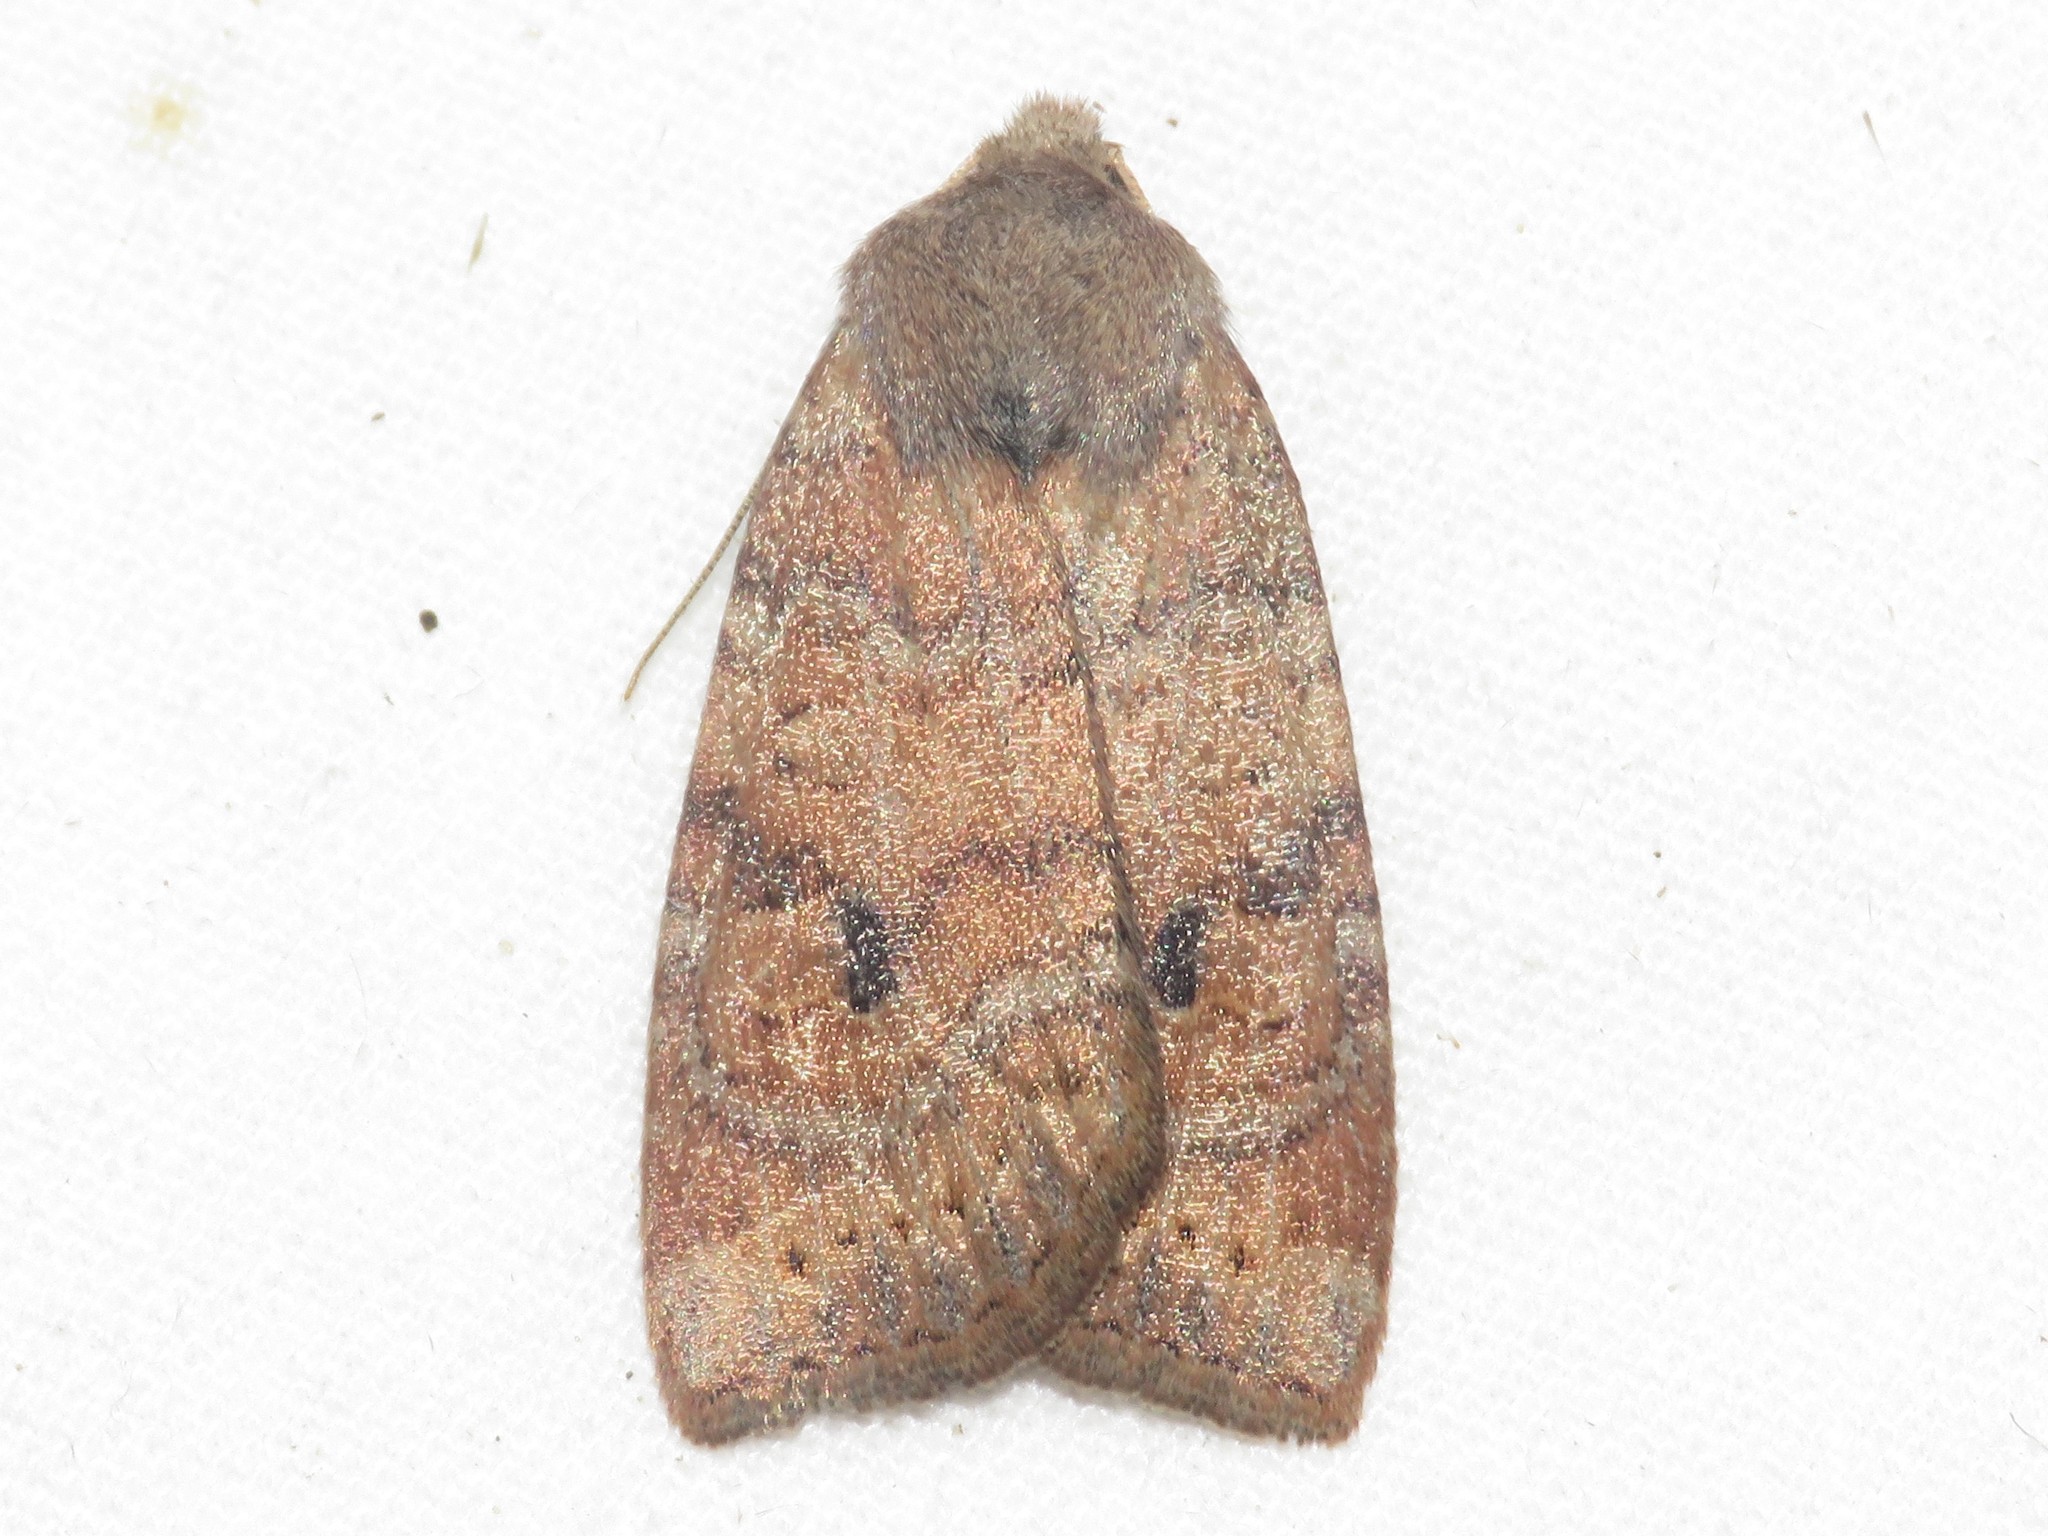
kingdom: Animalia
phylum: Arthropoda
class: Insecta
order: Lepidoptera
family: Noctuidae
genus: Anathix
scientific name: Anathix puta
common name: Puta sallow
